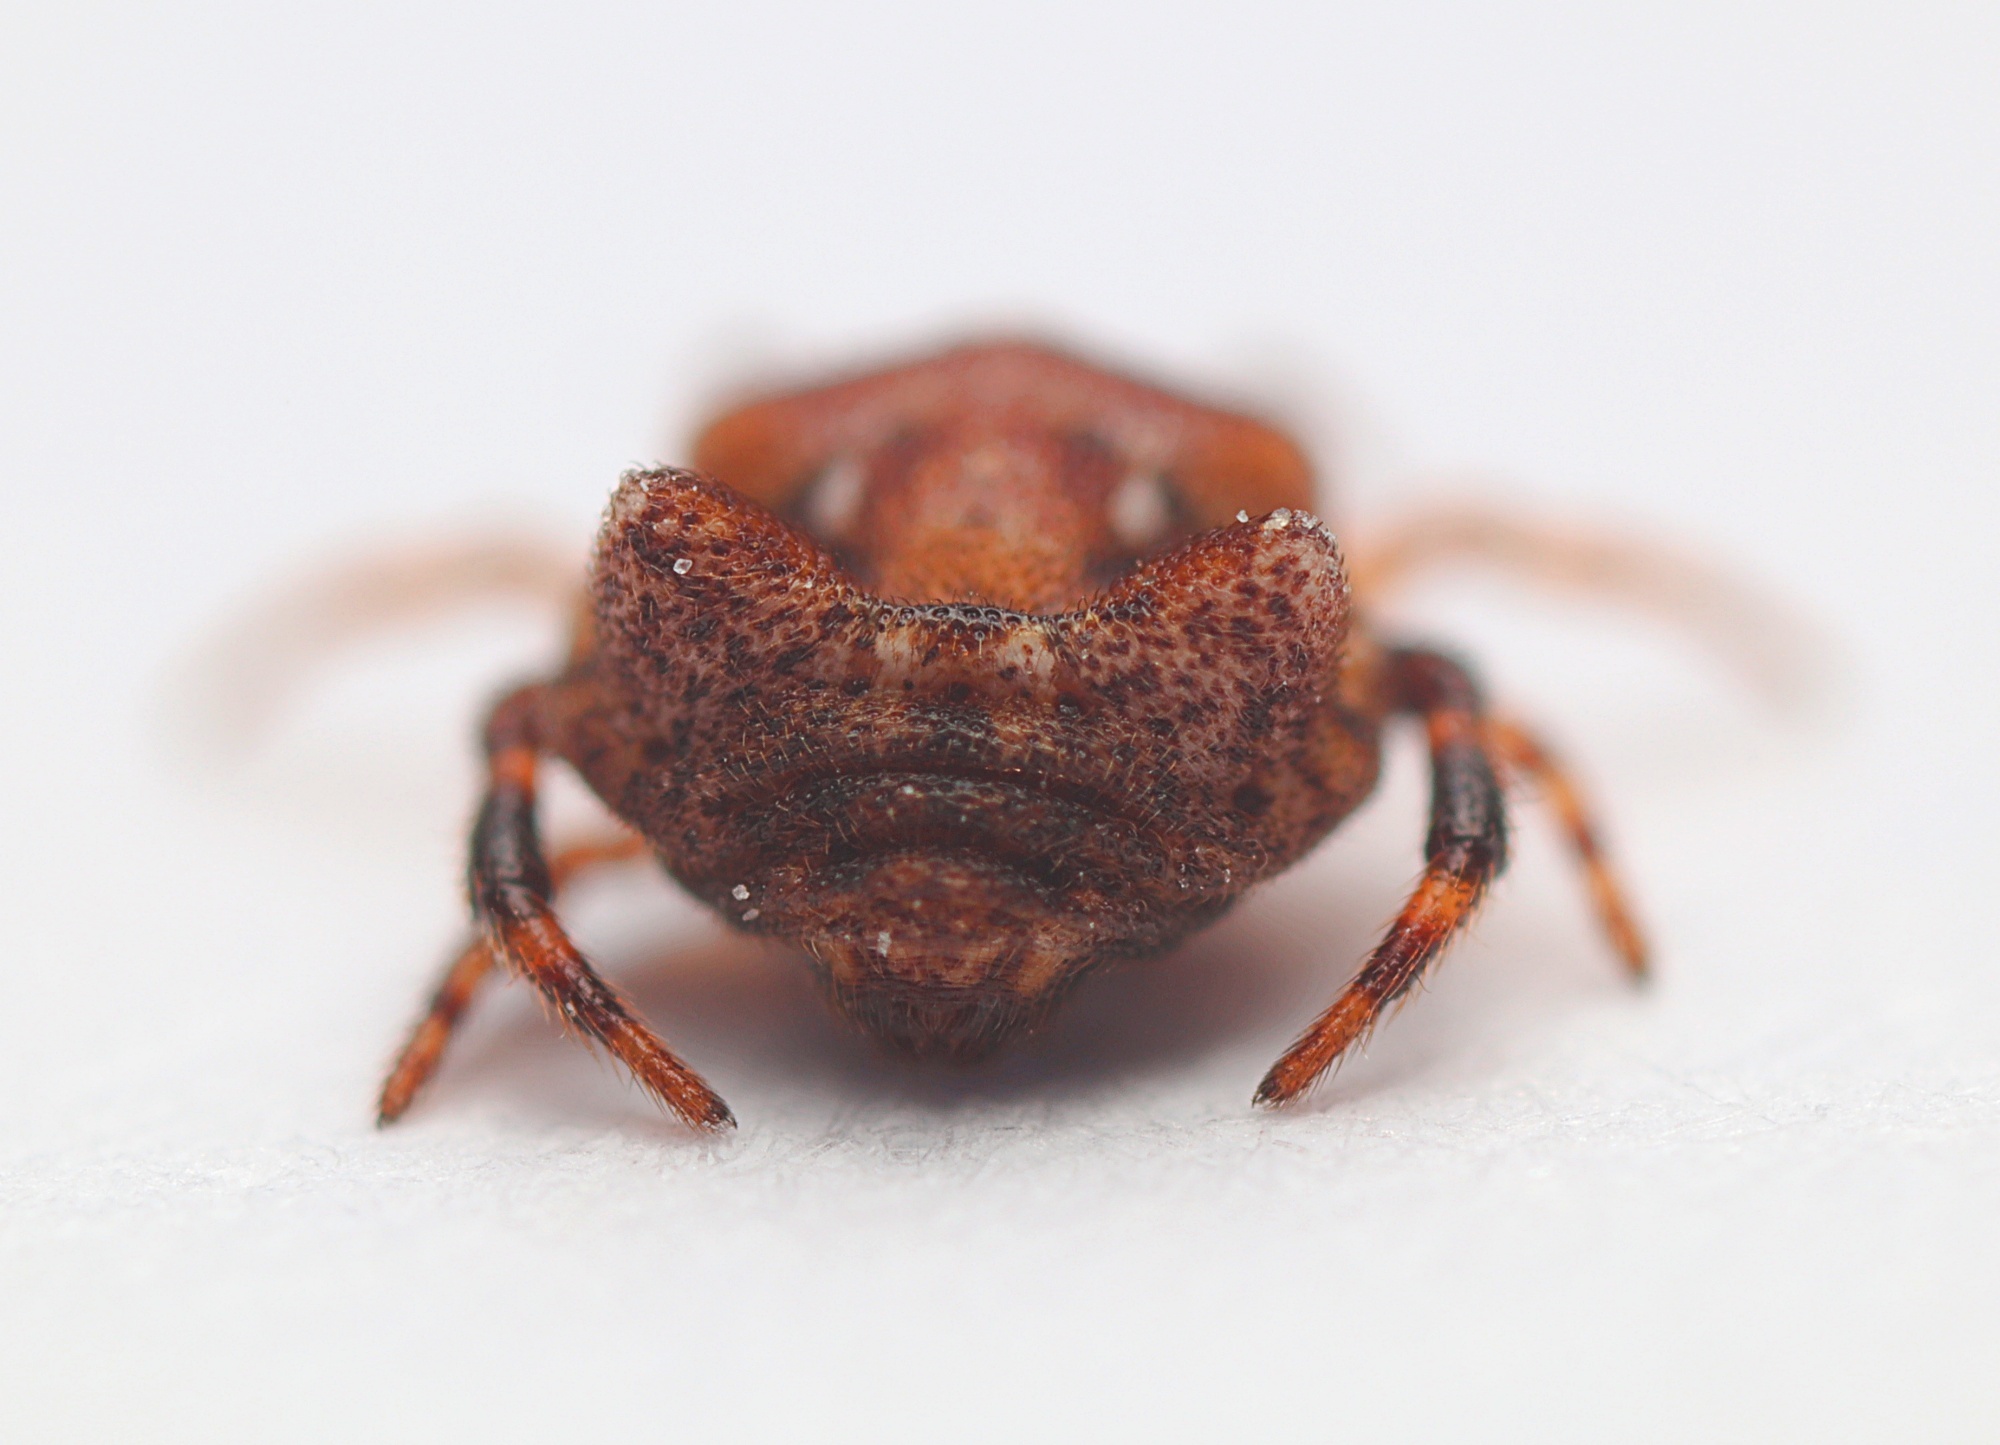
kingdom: Animalia
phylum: Arthropoda
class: Arachnida
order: Araneae
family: Theridiidae
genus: Phoroncidia
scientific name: Phoroncidia quadrata
